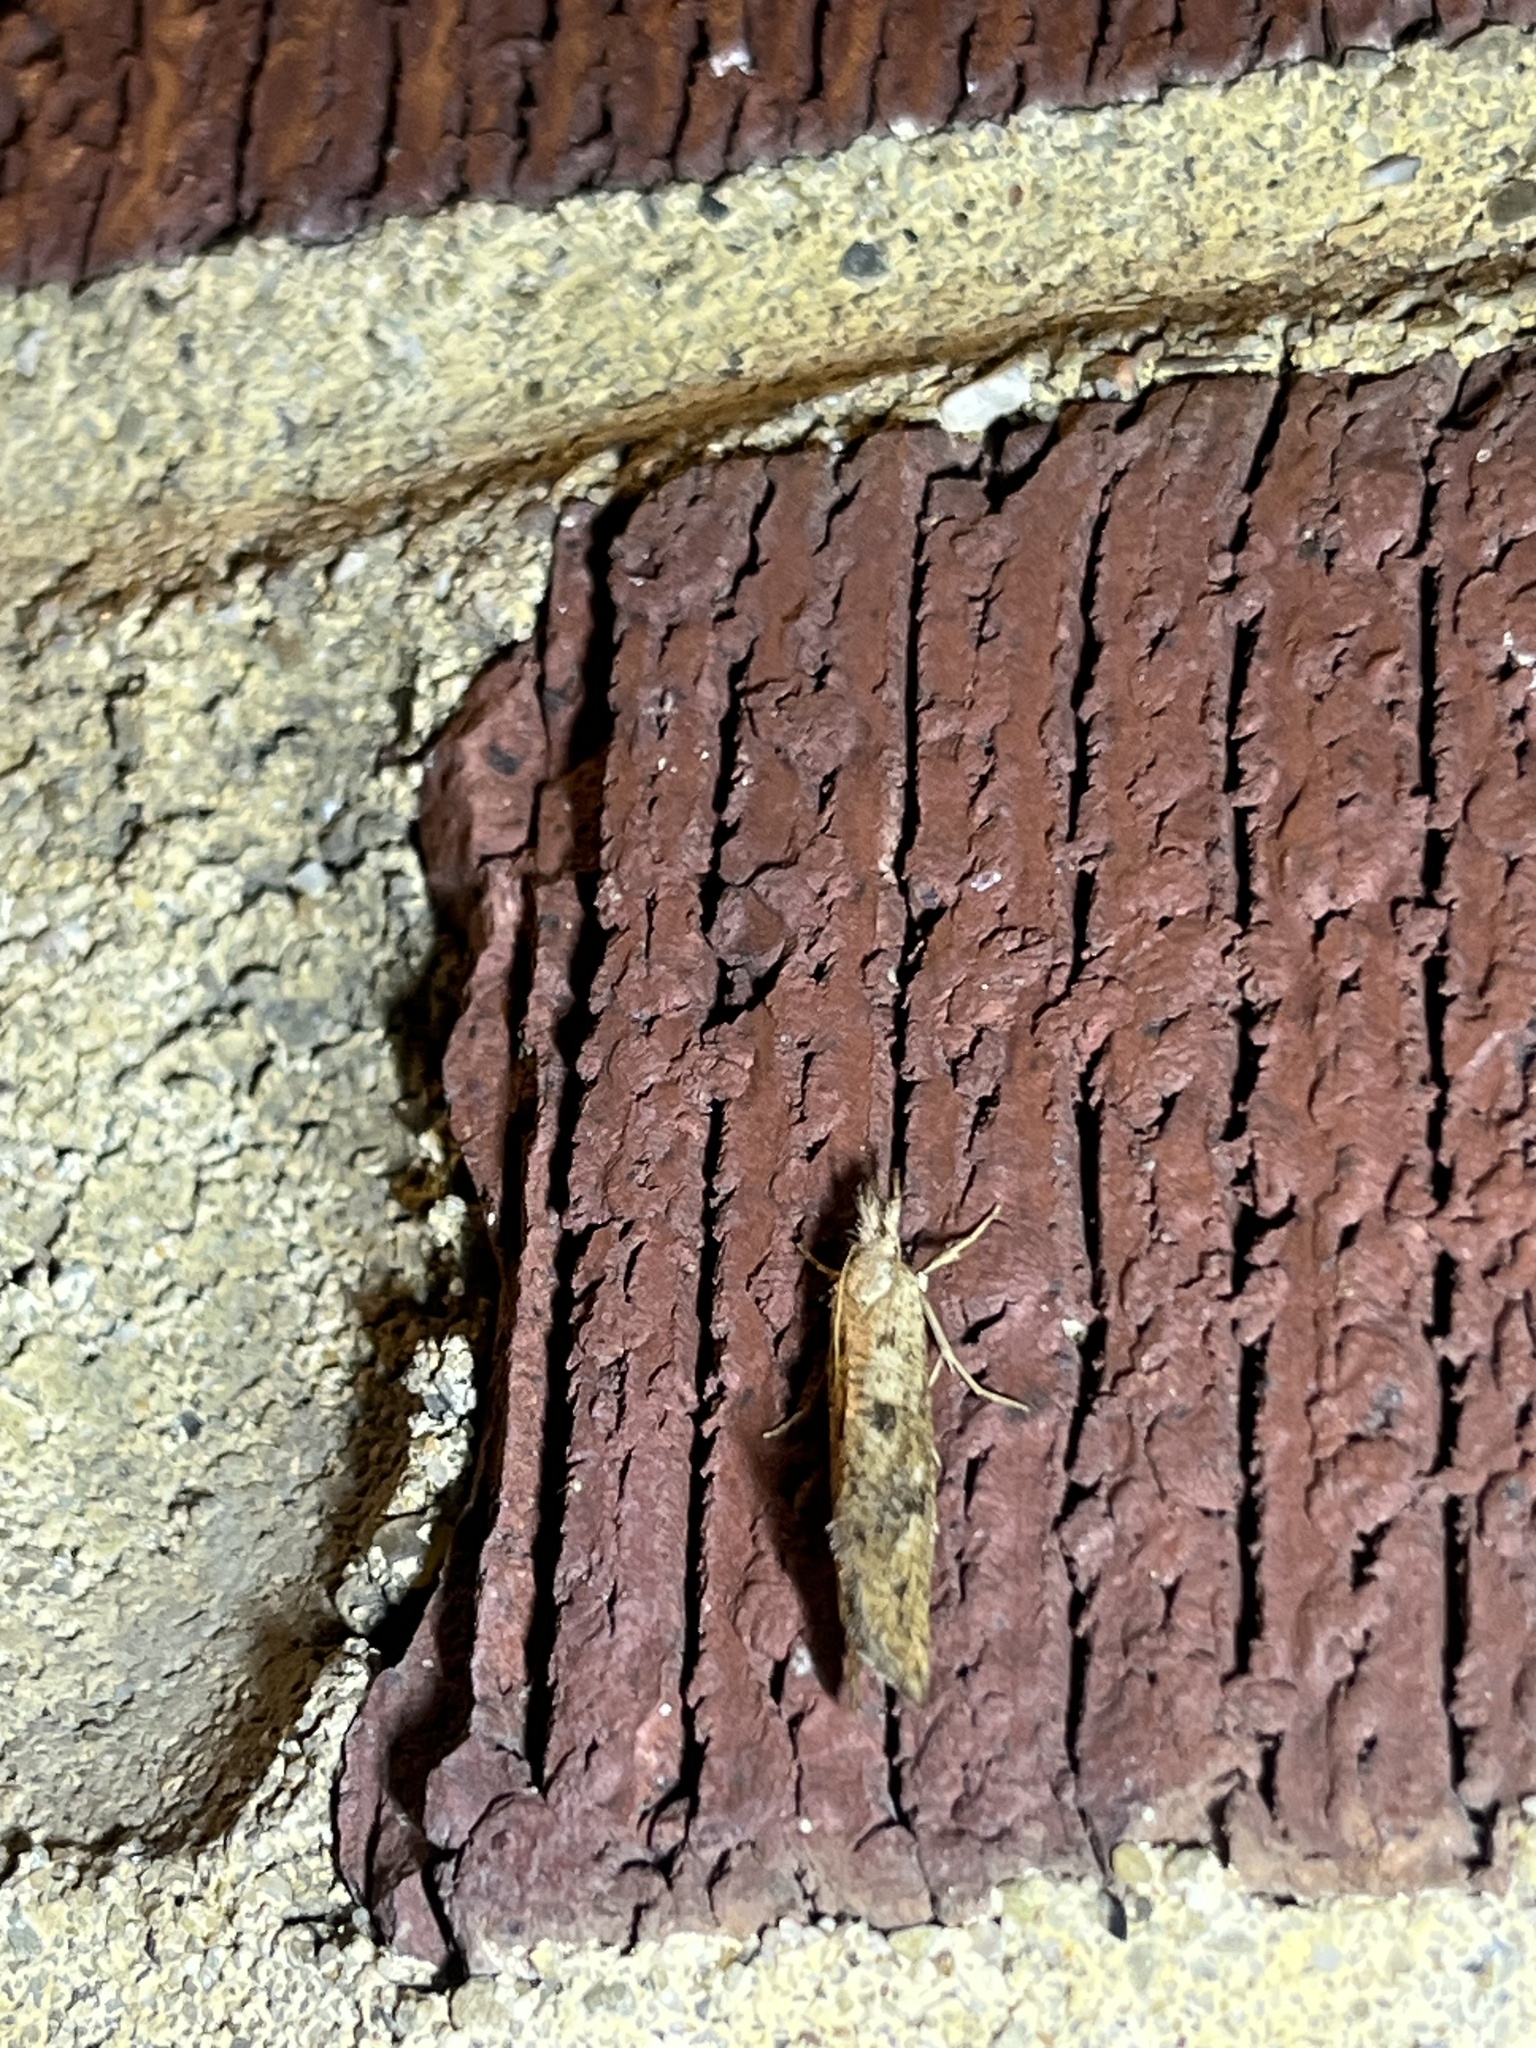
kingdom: Animalia
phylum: Arthropoda
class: Insecta
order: Lepidoptera
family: Tineidae
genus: Acrolophus
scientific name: Acrolophus mortipennella
